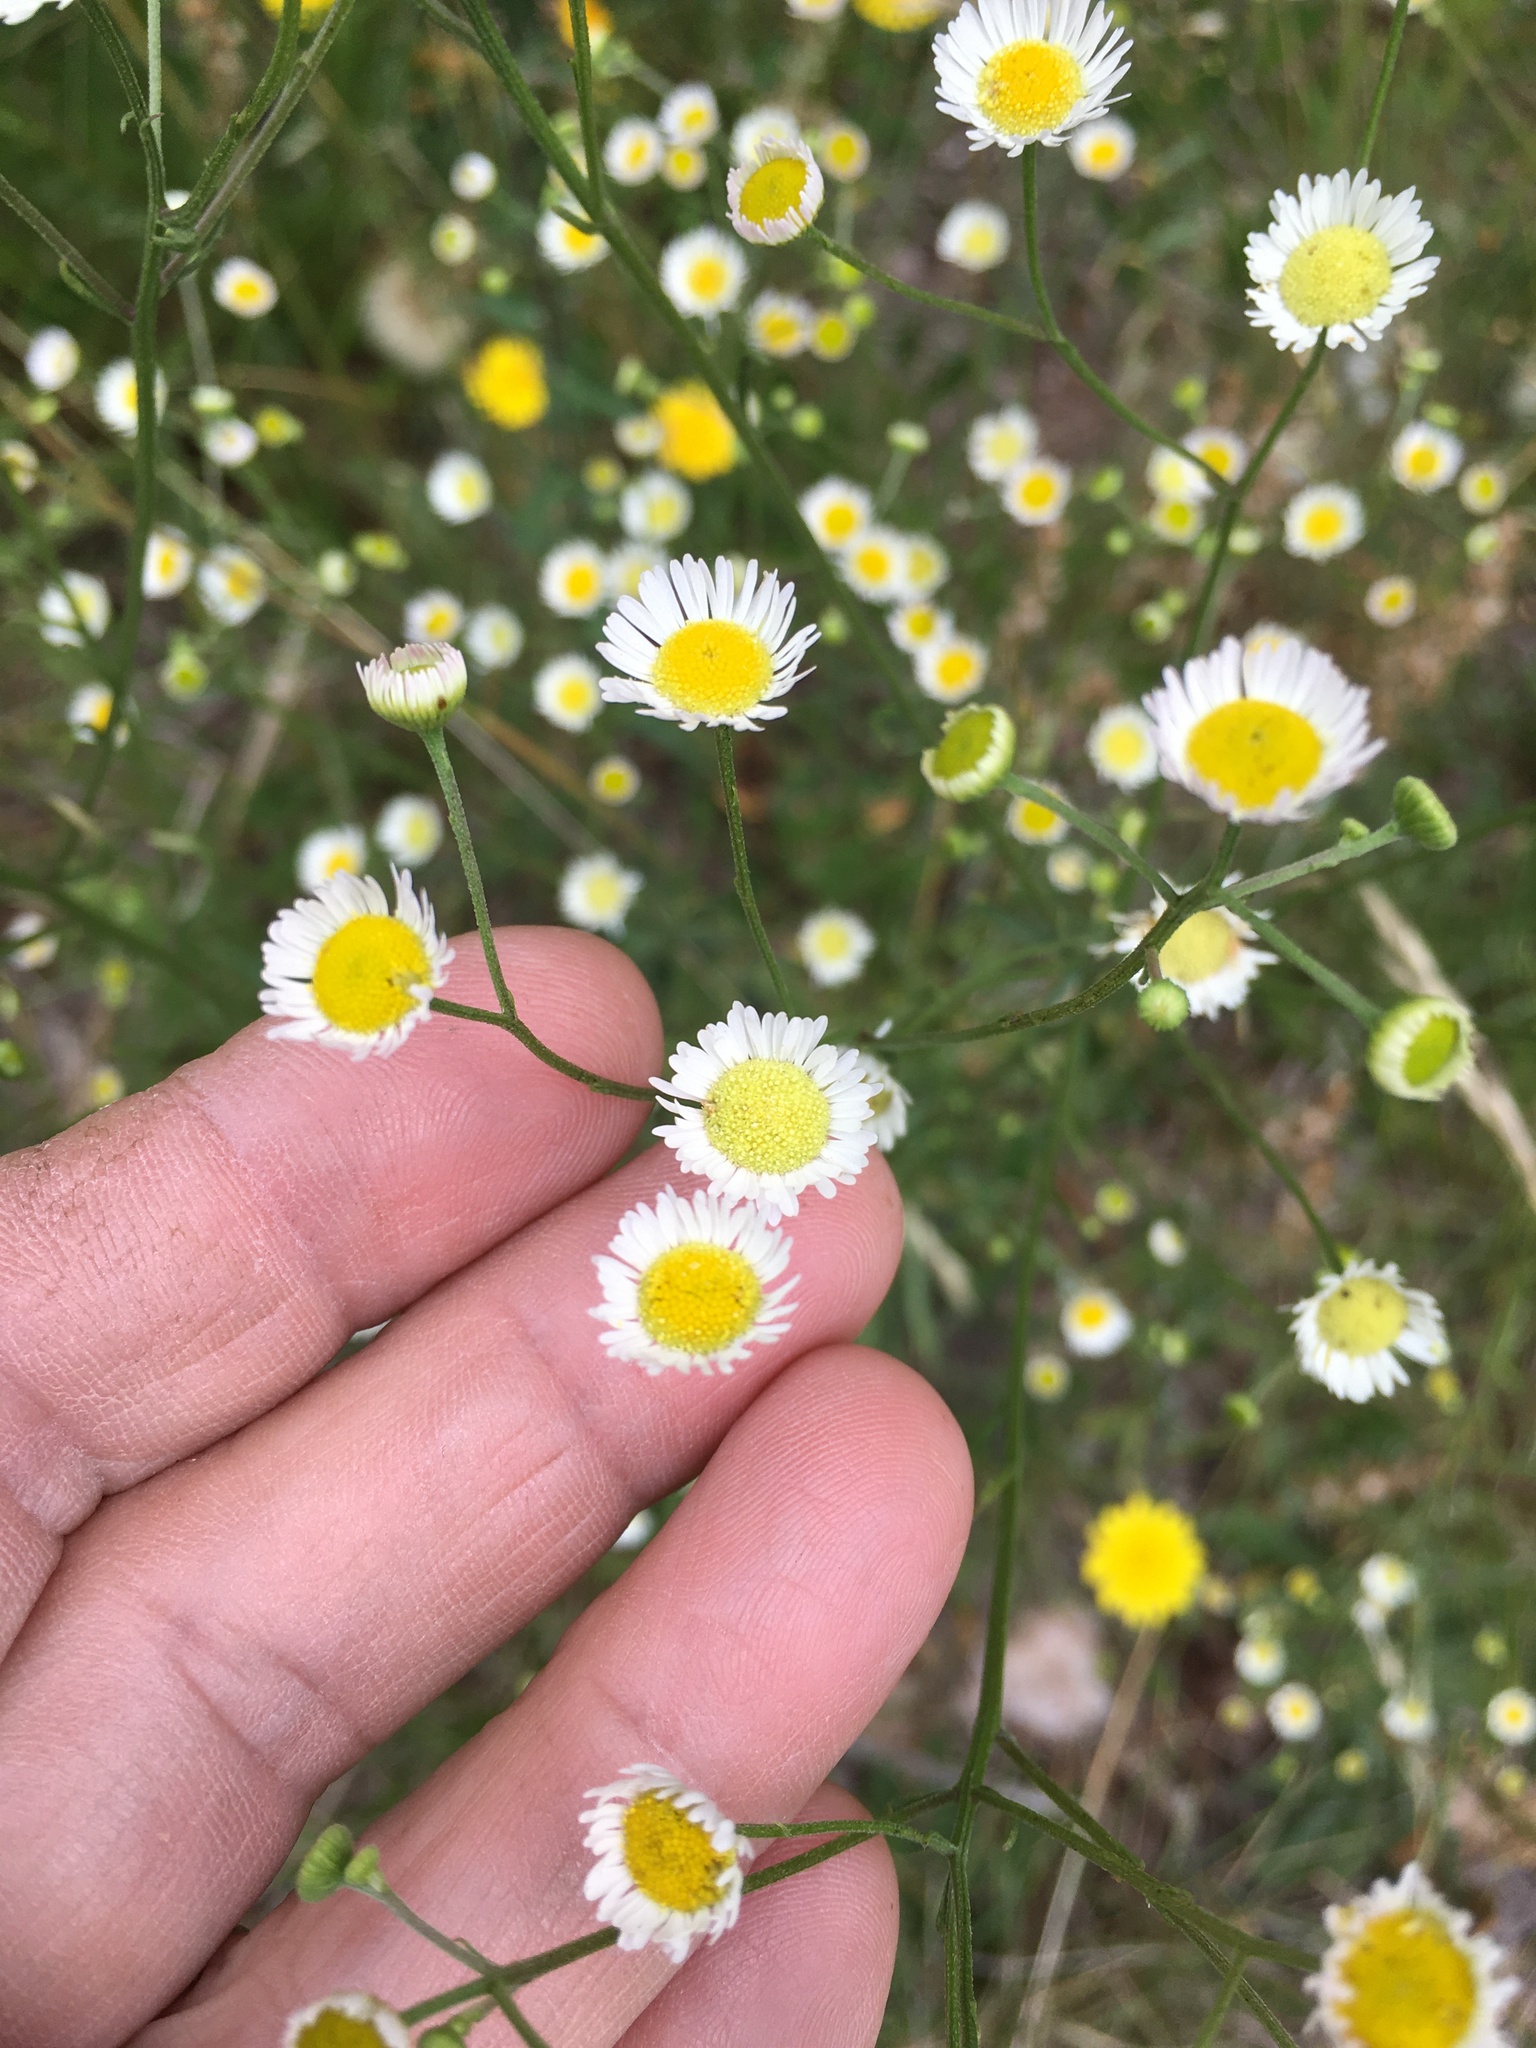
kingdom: Plantae
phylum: Tracheophyta
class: Magnoliopsida
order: Asterales
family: Asteraceae
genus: Erigeron
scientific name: Erigeron strigosus
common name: Common eastern fleabane
